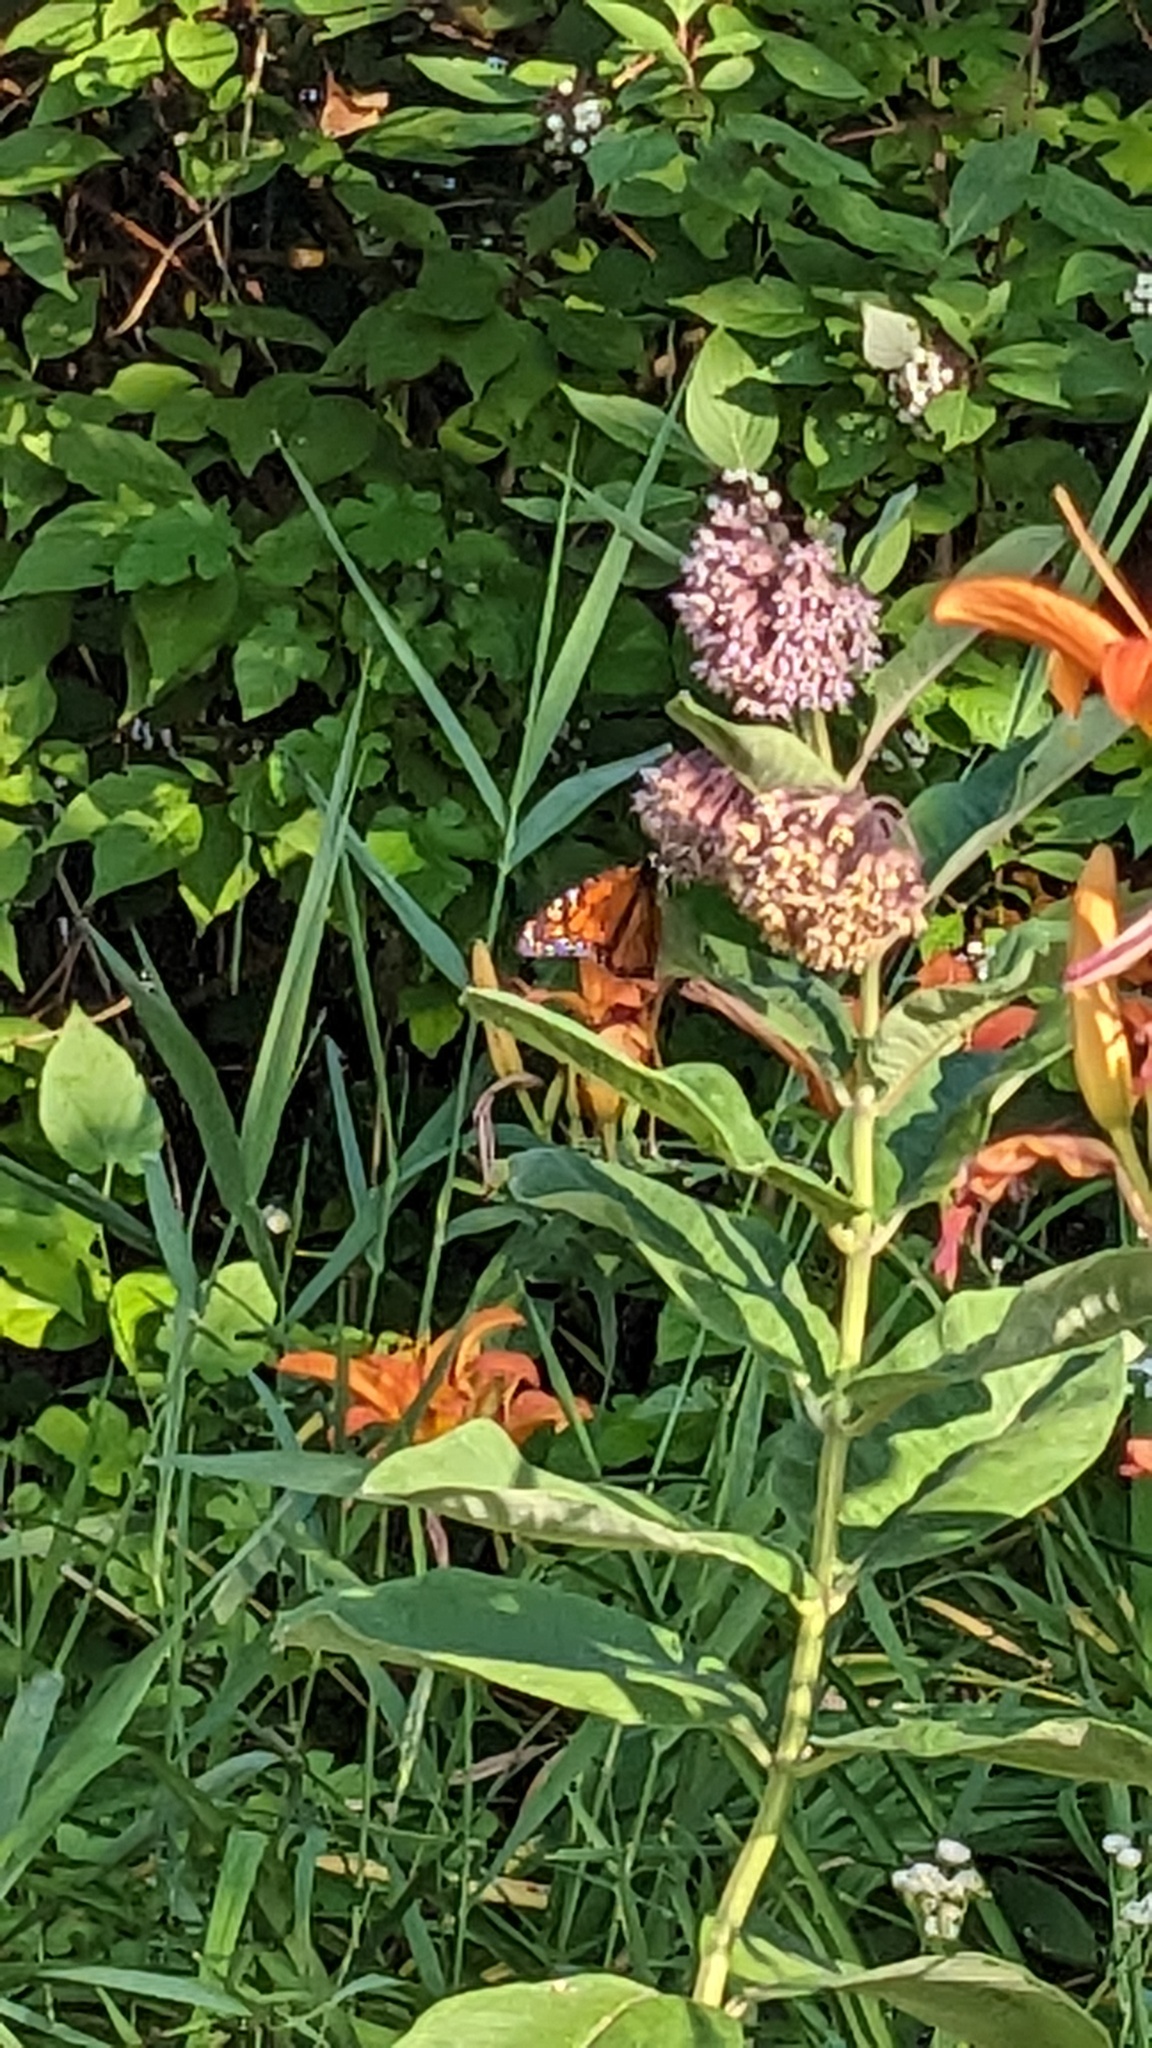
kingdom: Animalia
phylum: Arthropoda
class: Insecta
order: Lepidoptera
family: Nymphalidae
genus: Danaus
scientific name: Danaus plexippus
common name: Monarch
